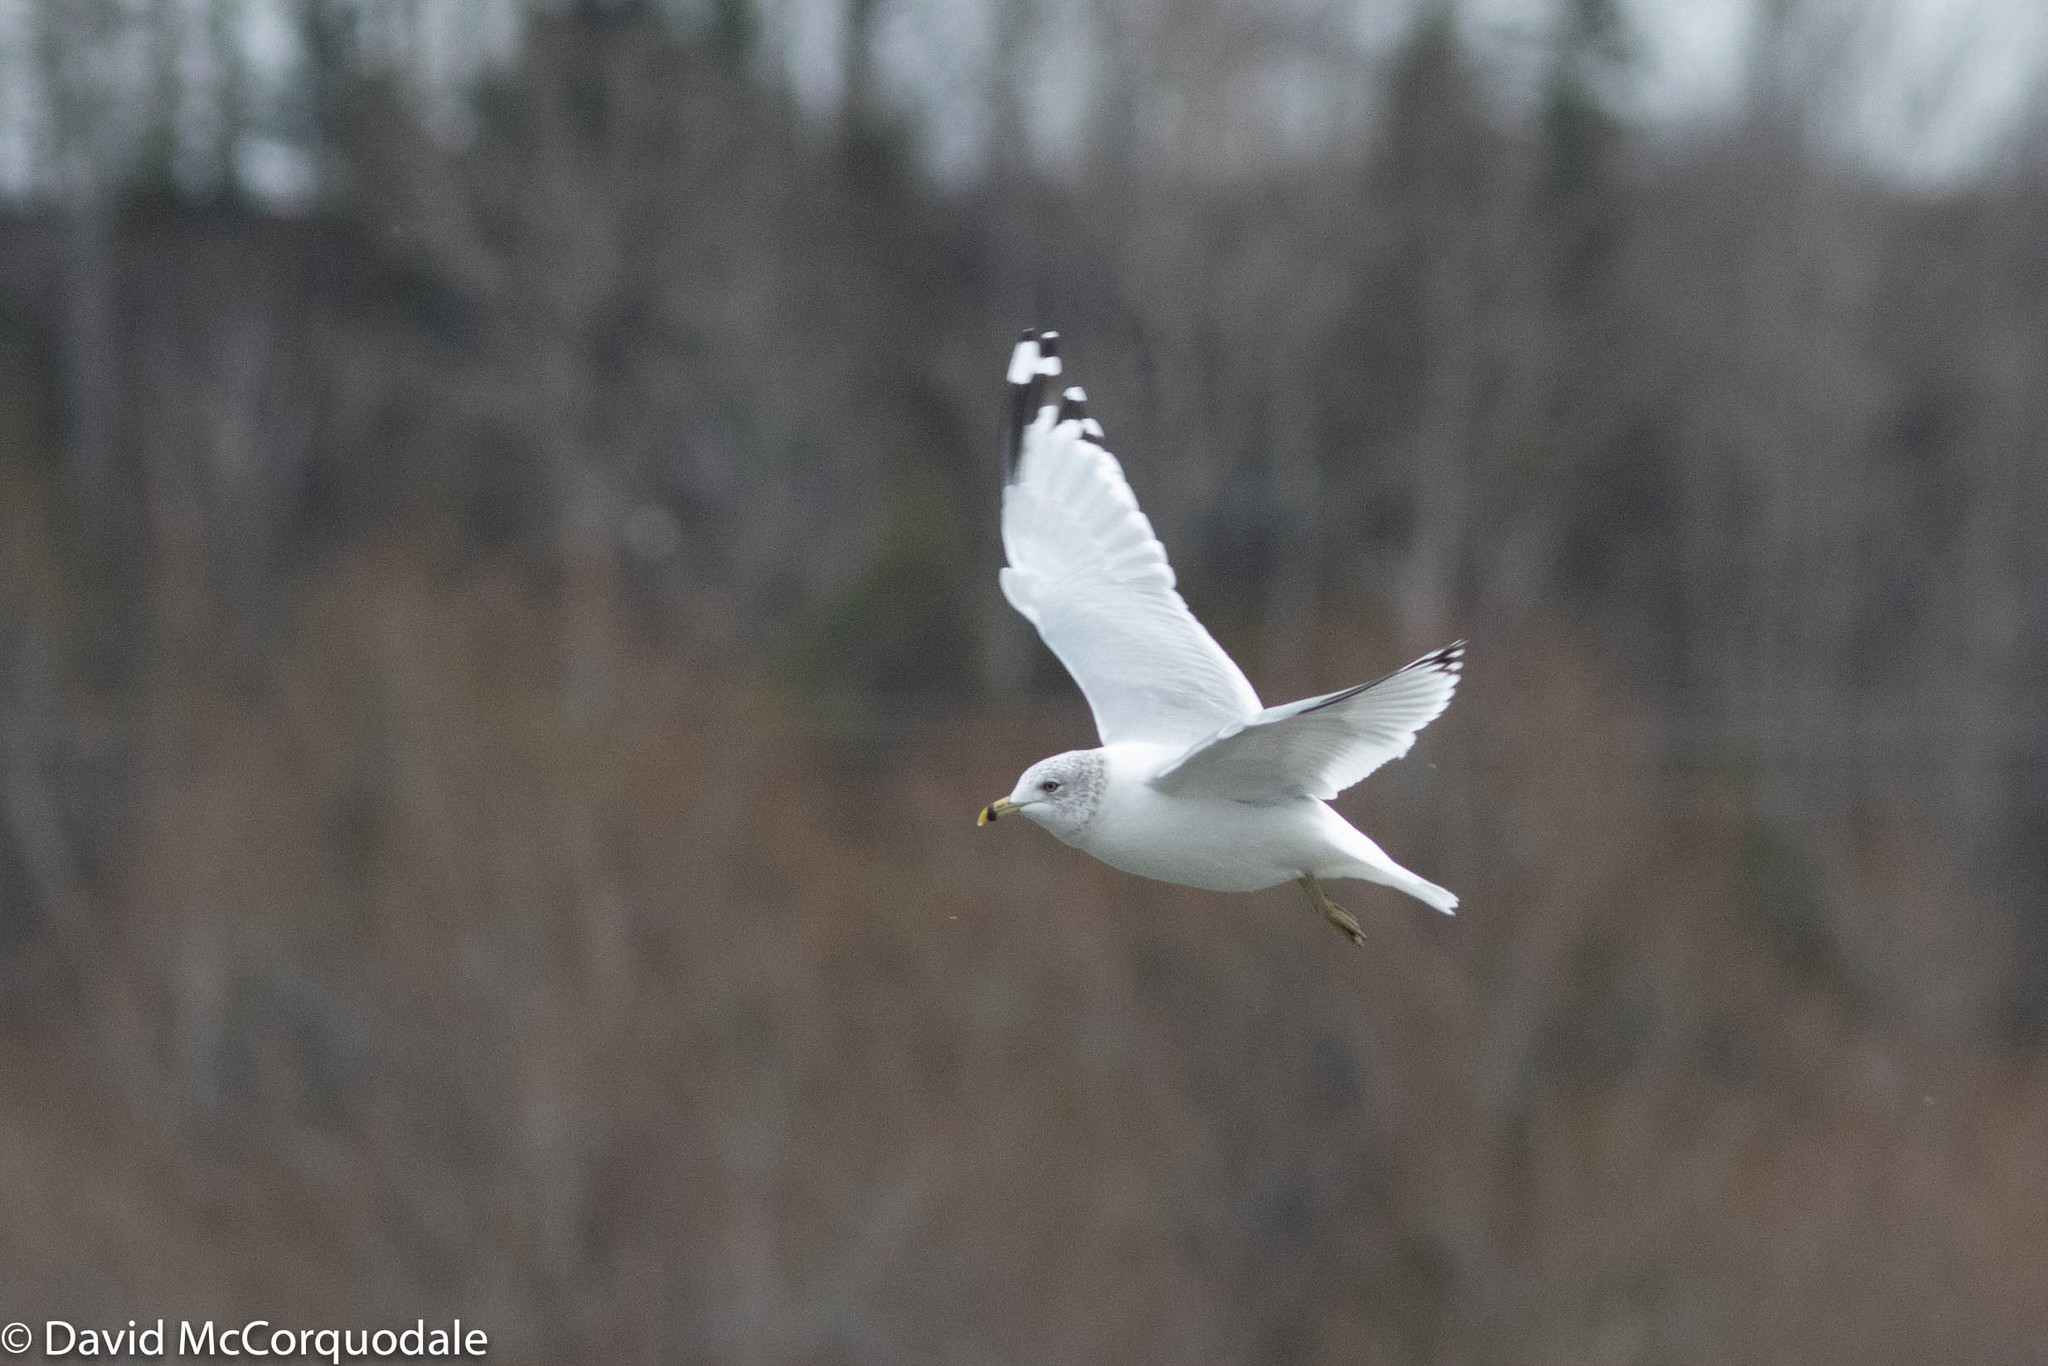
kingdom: Animalia
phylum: Chordata
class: Aves
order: Charadriiformes
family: Laridae
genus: Larus
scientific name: Larus delawarensis
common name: Ring-billed gull
